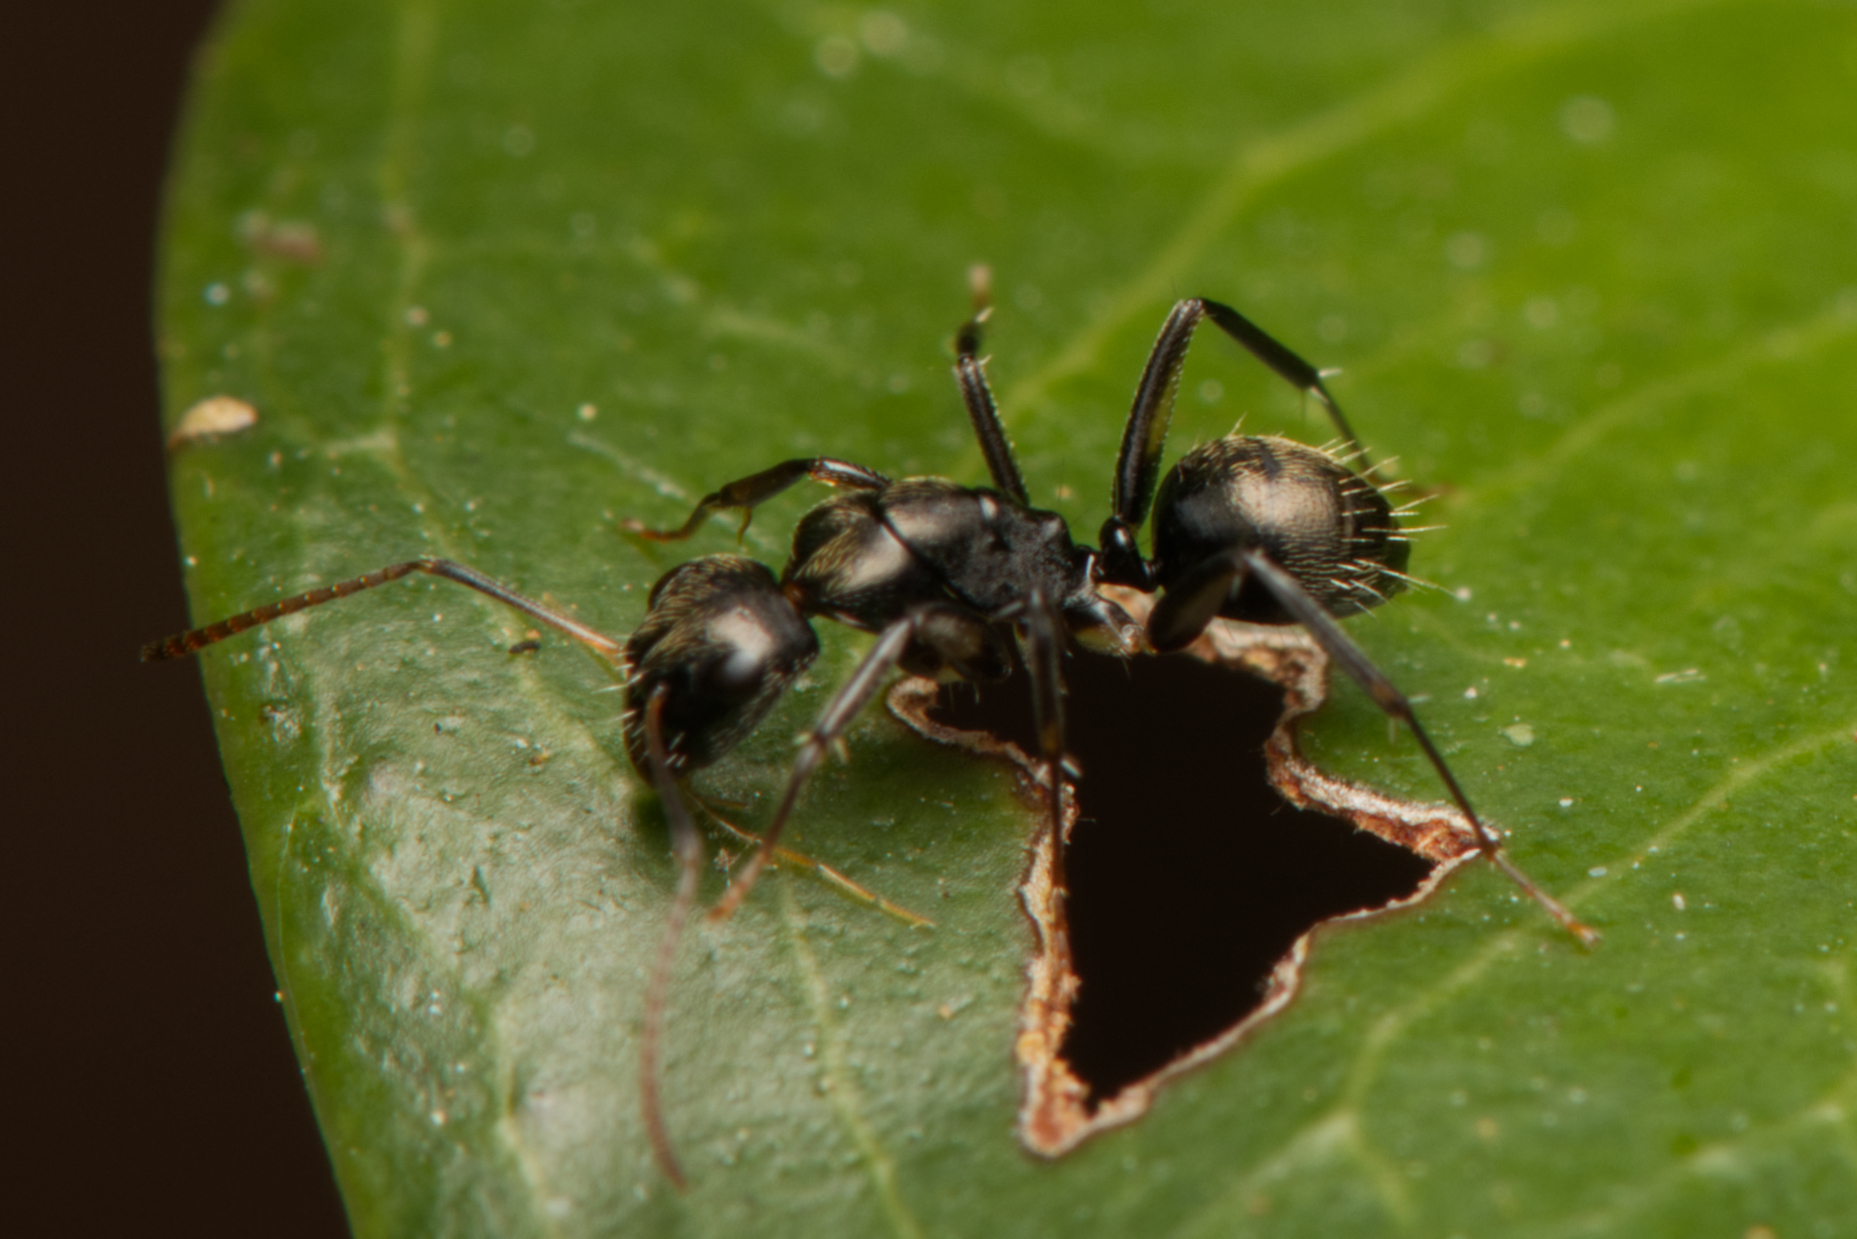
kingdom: Animalia
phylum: Arthropoda
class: Insecta
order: Hymenoptera
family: Formicidae
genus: Camponotus
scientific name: Camponotus froggatti
